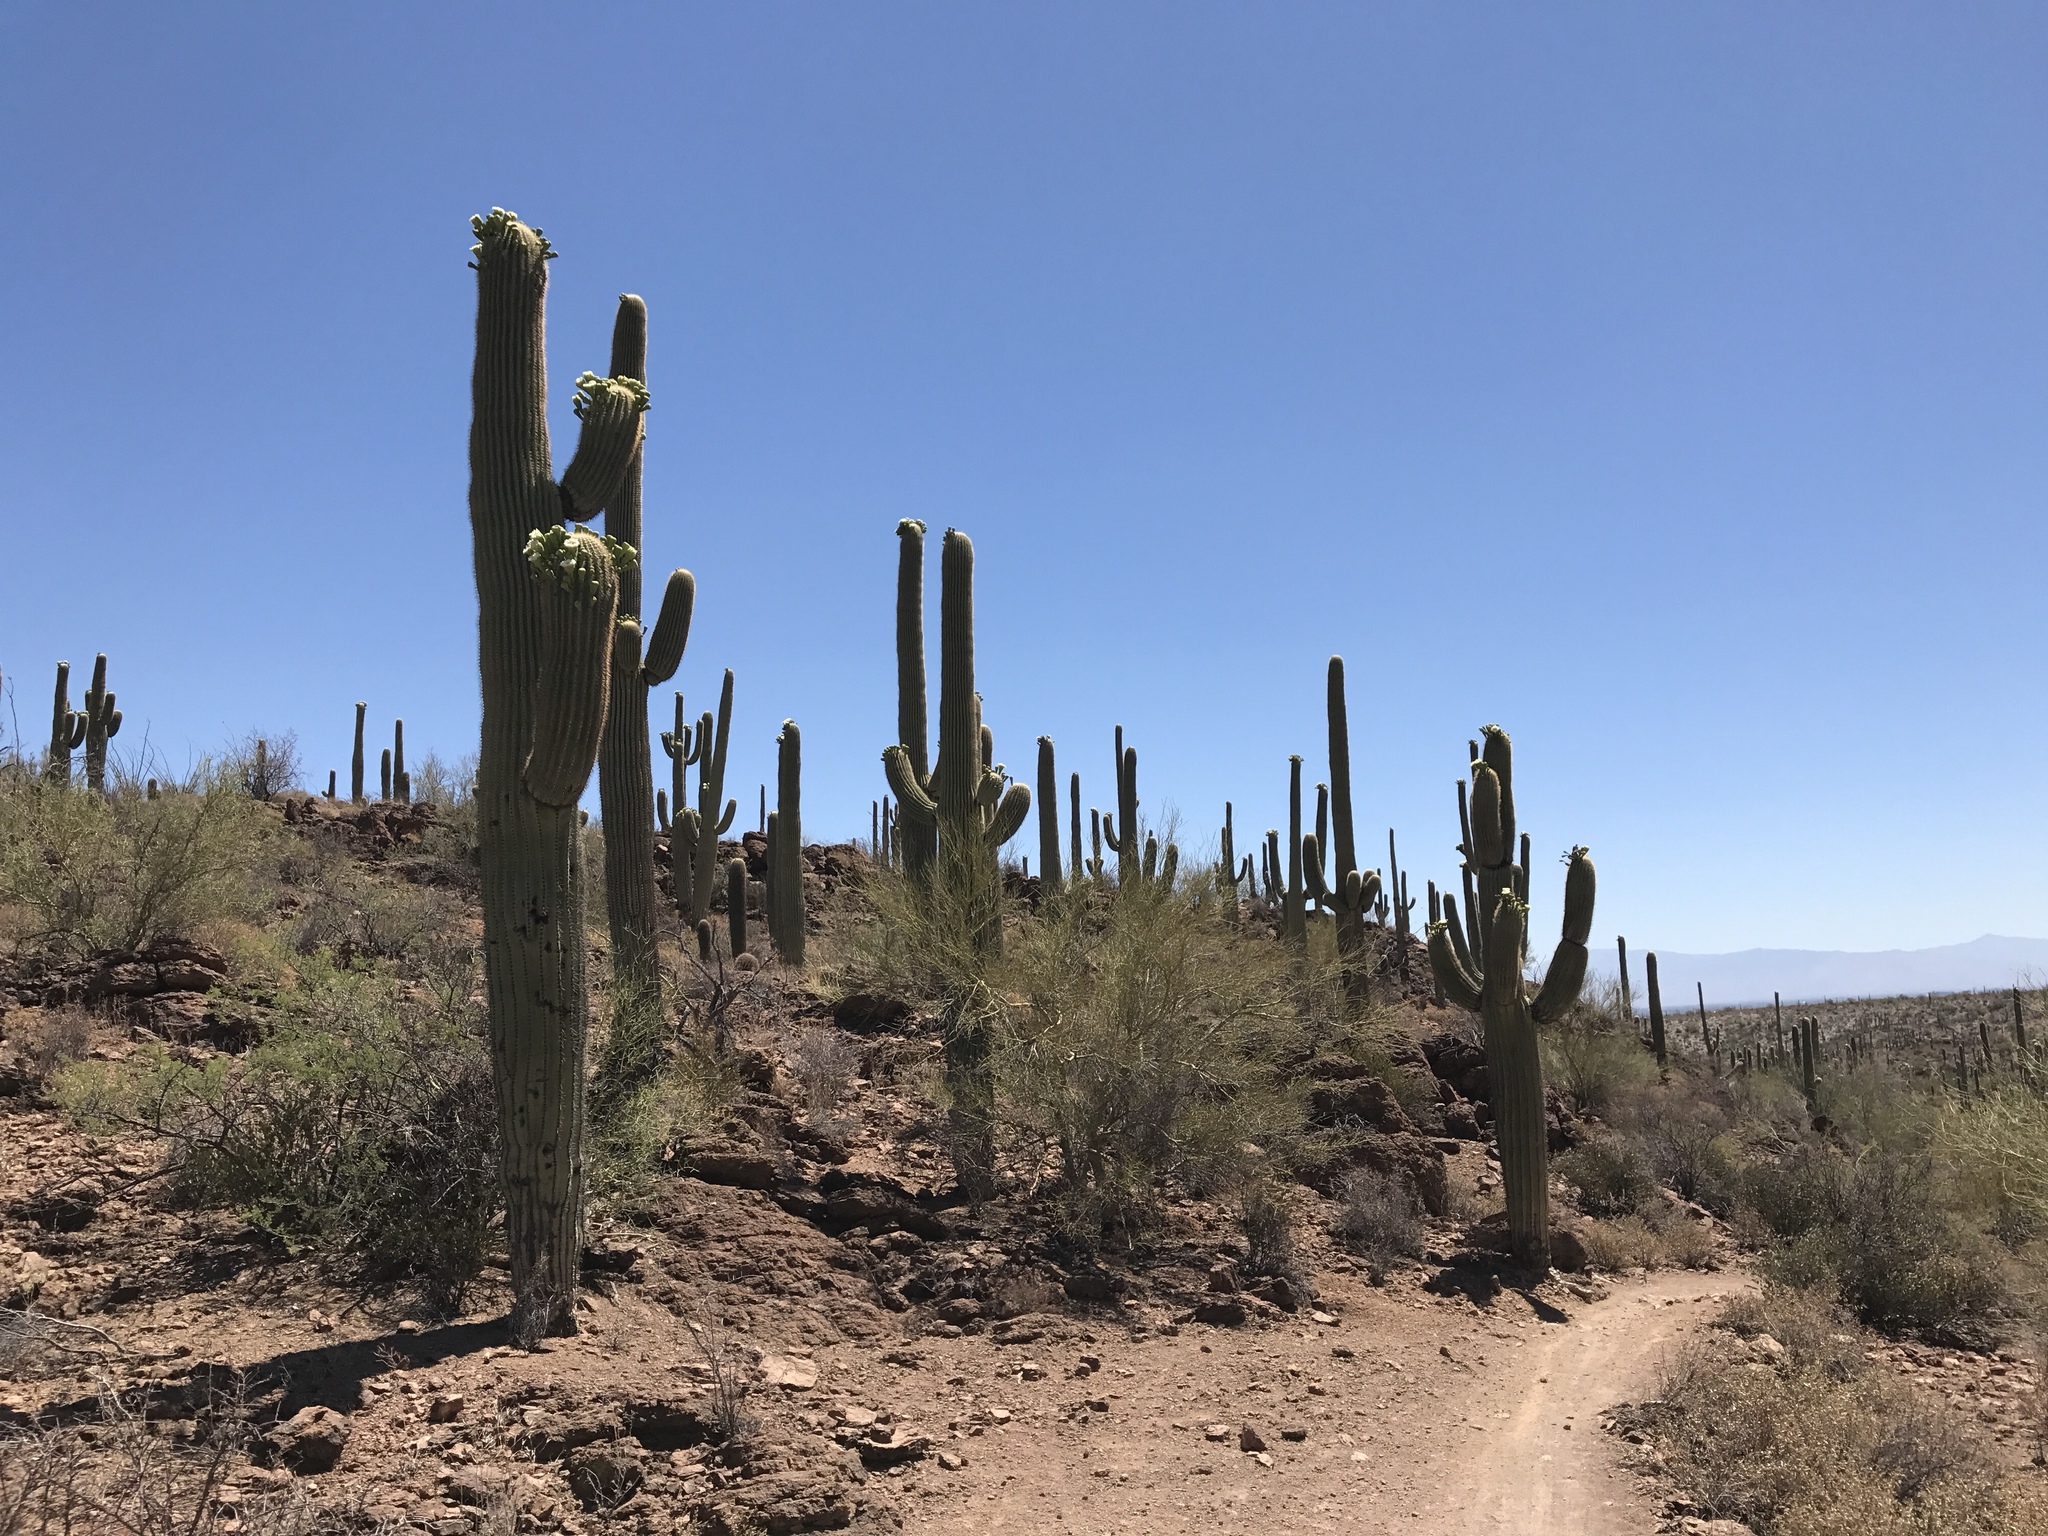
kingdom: Plantae
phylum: Tracheophyta
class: Magnoliopsida
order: Caryophyllales
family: Cactaceae
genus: Carnegiea
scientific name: Carnegiea gigantea
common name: Saguaro
